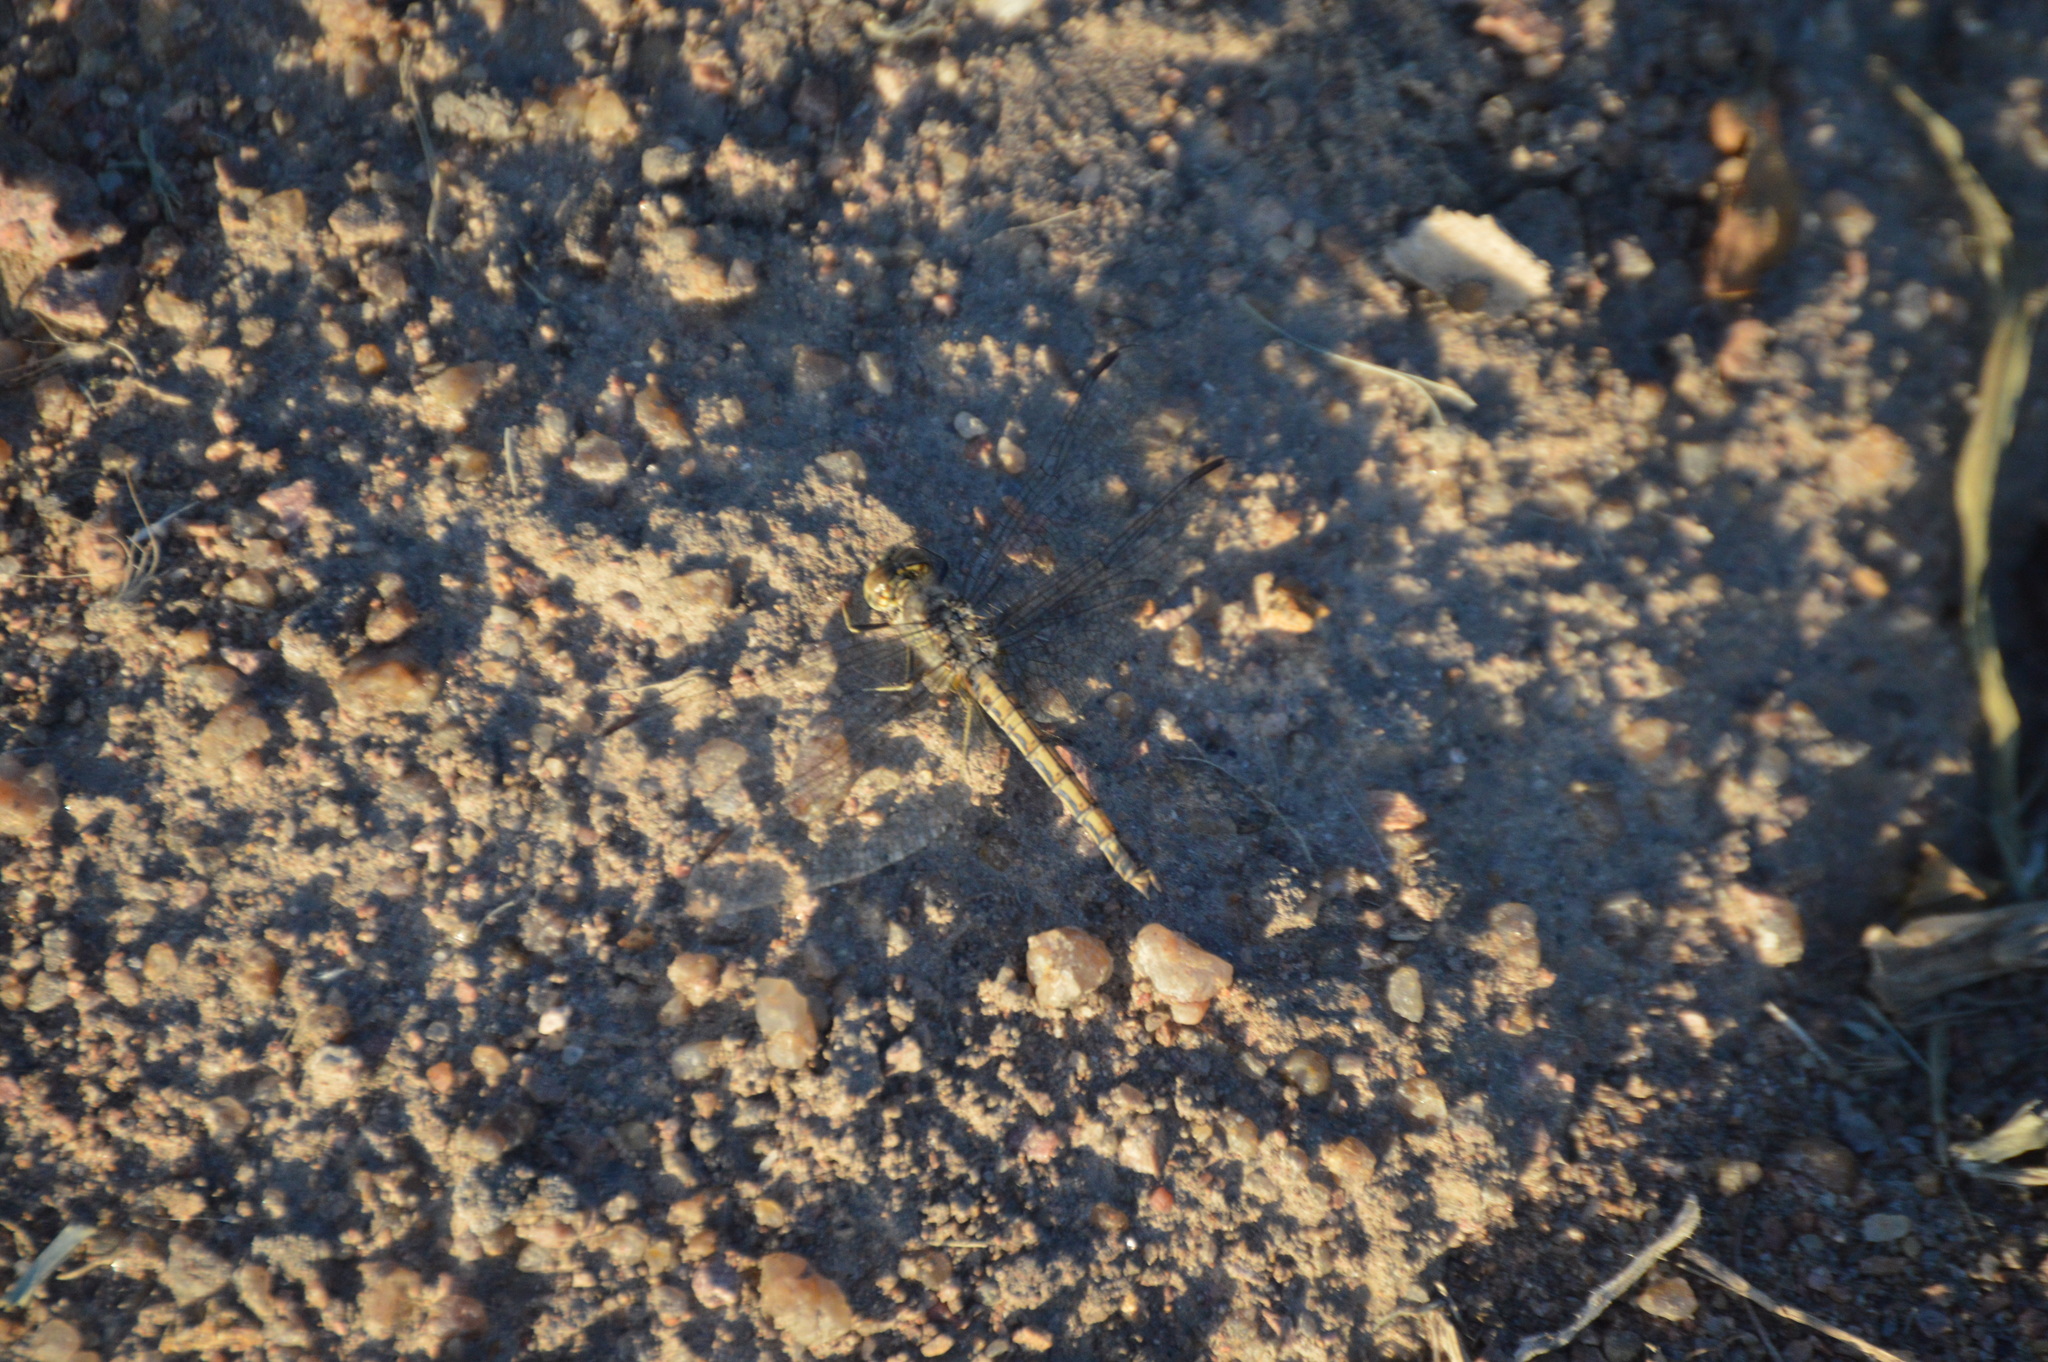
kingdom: Animalia
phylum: Arthropoda
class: Insecta
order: Odonata
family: Libellulidae
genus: Brachythemis
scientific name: Brachythemis leucosticta
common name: Banded groundling
